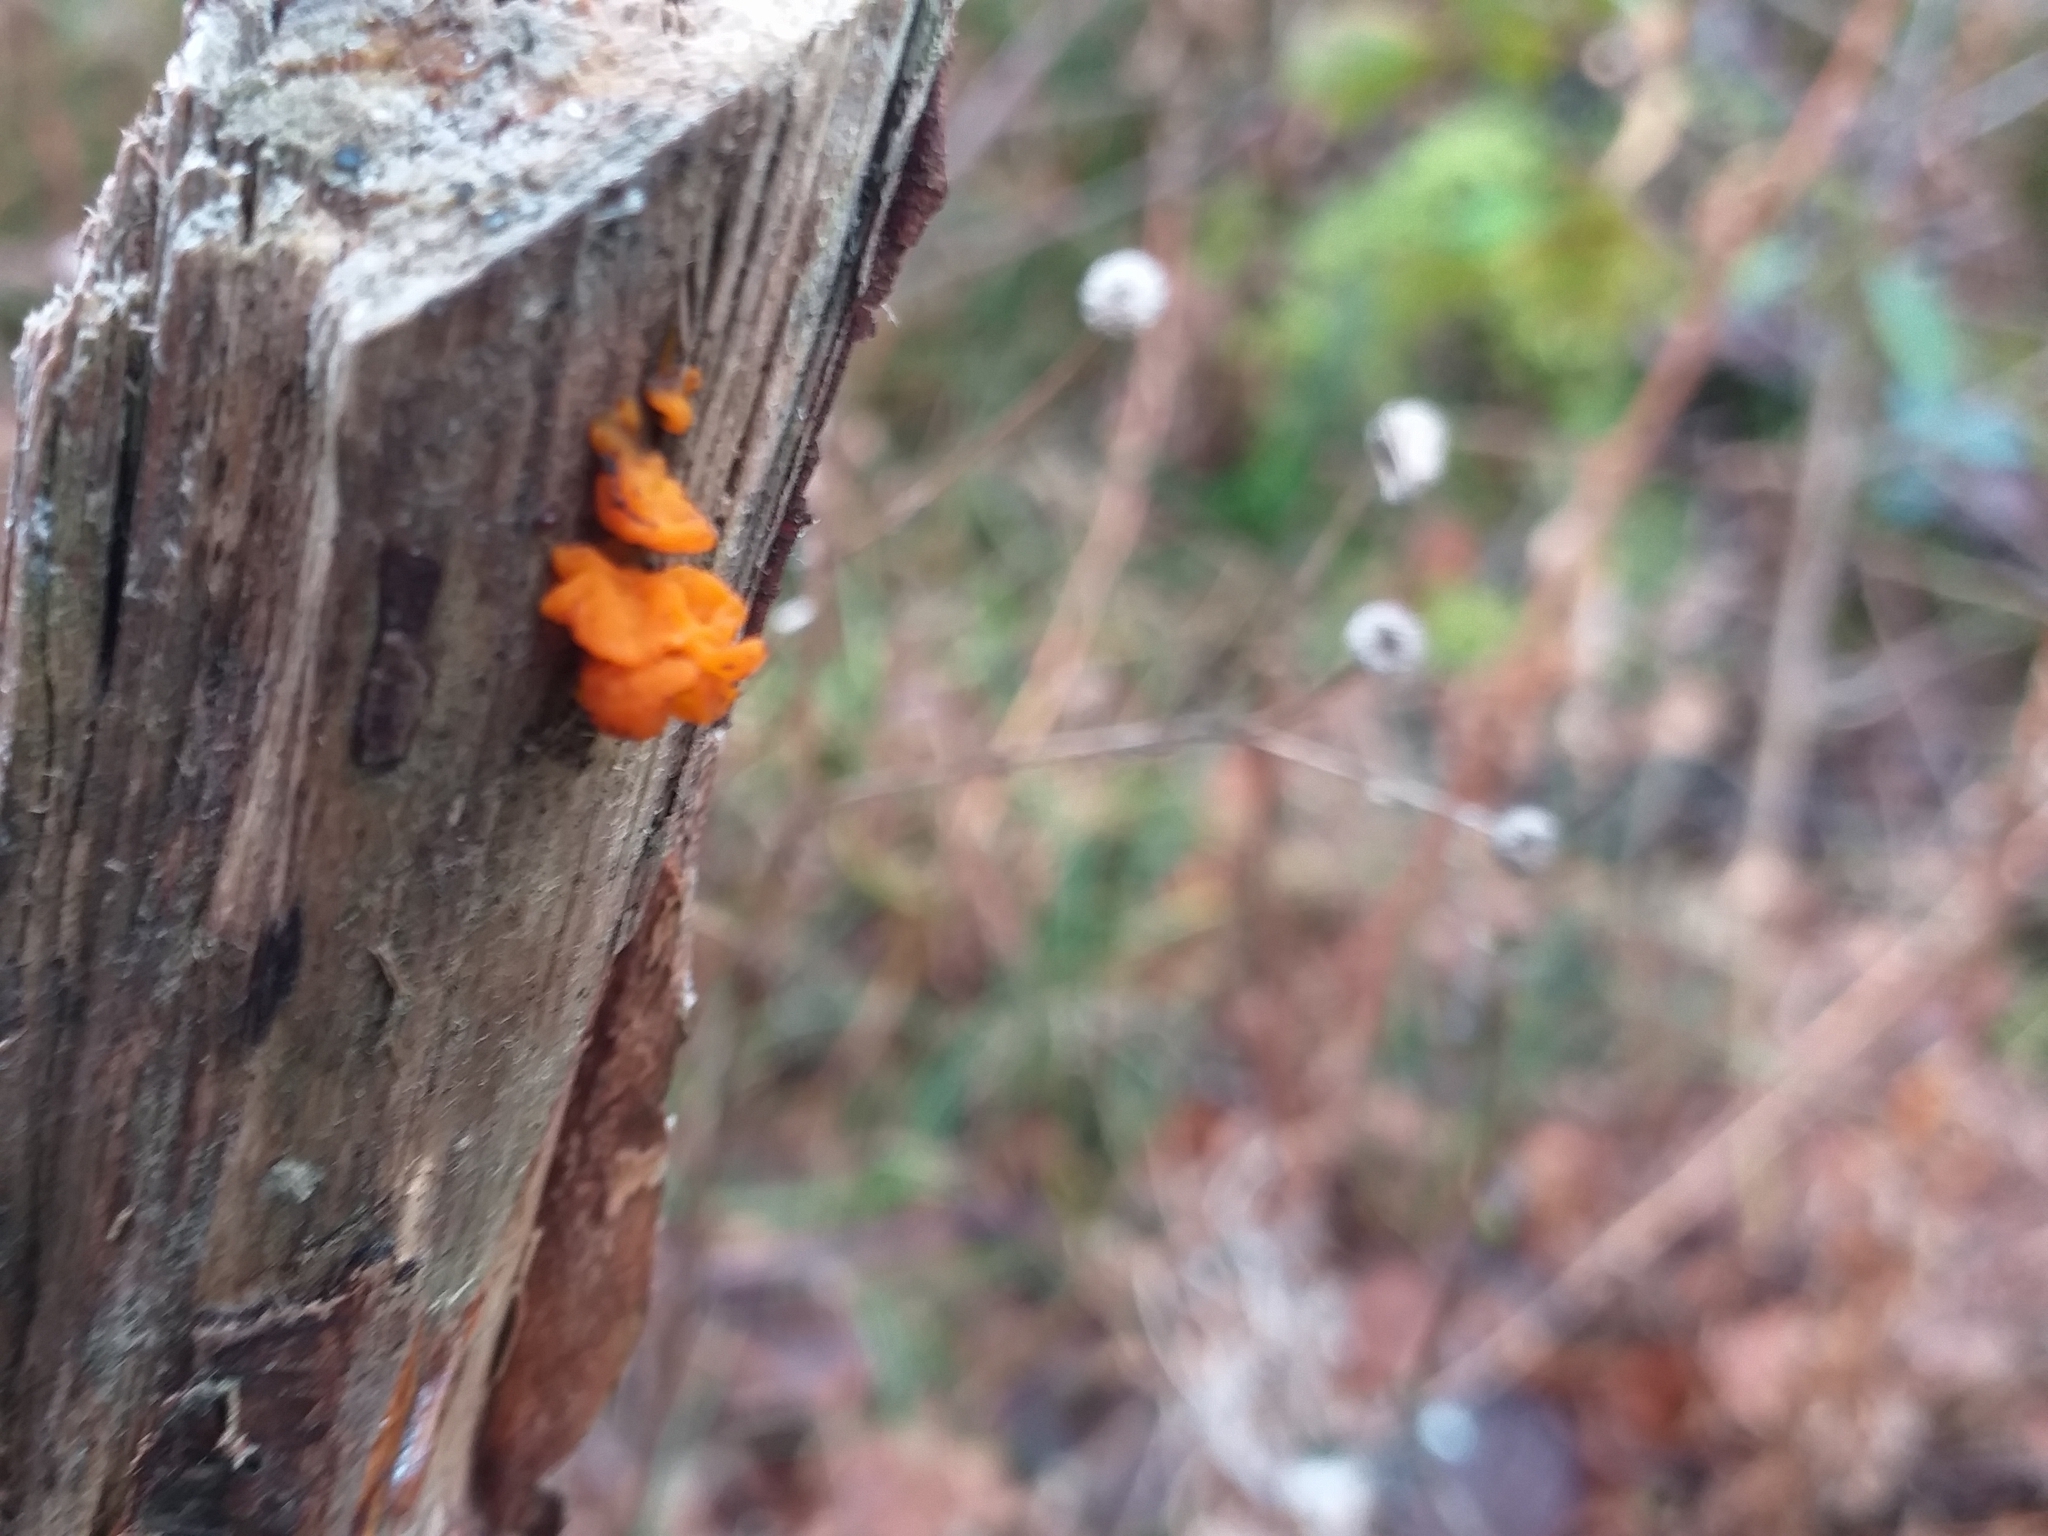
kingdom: Fungi
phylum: Basidiomycota
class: Dacrymycetes
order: Dacrymycetales
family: Dacrymycetaceae
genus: Dacrymyces
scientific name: Dacrymyces chrysospermus
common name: Orange jelly spot
